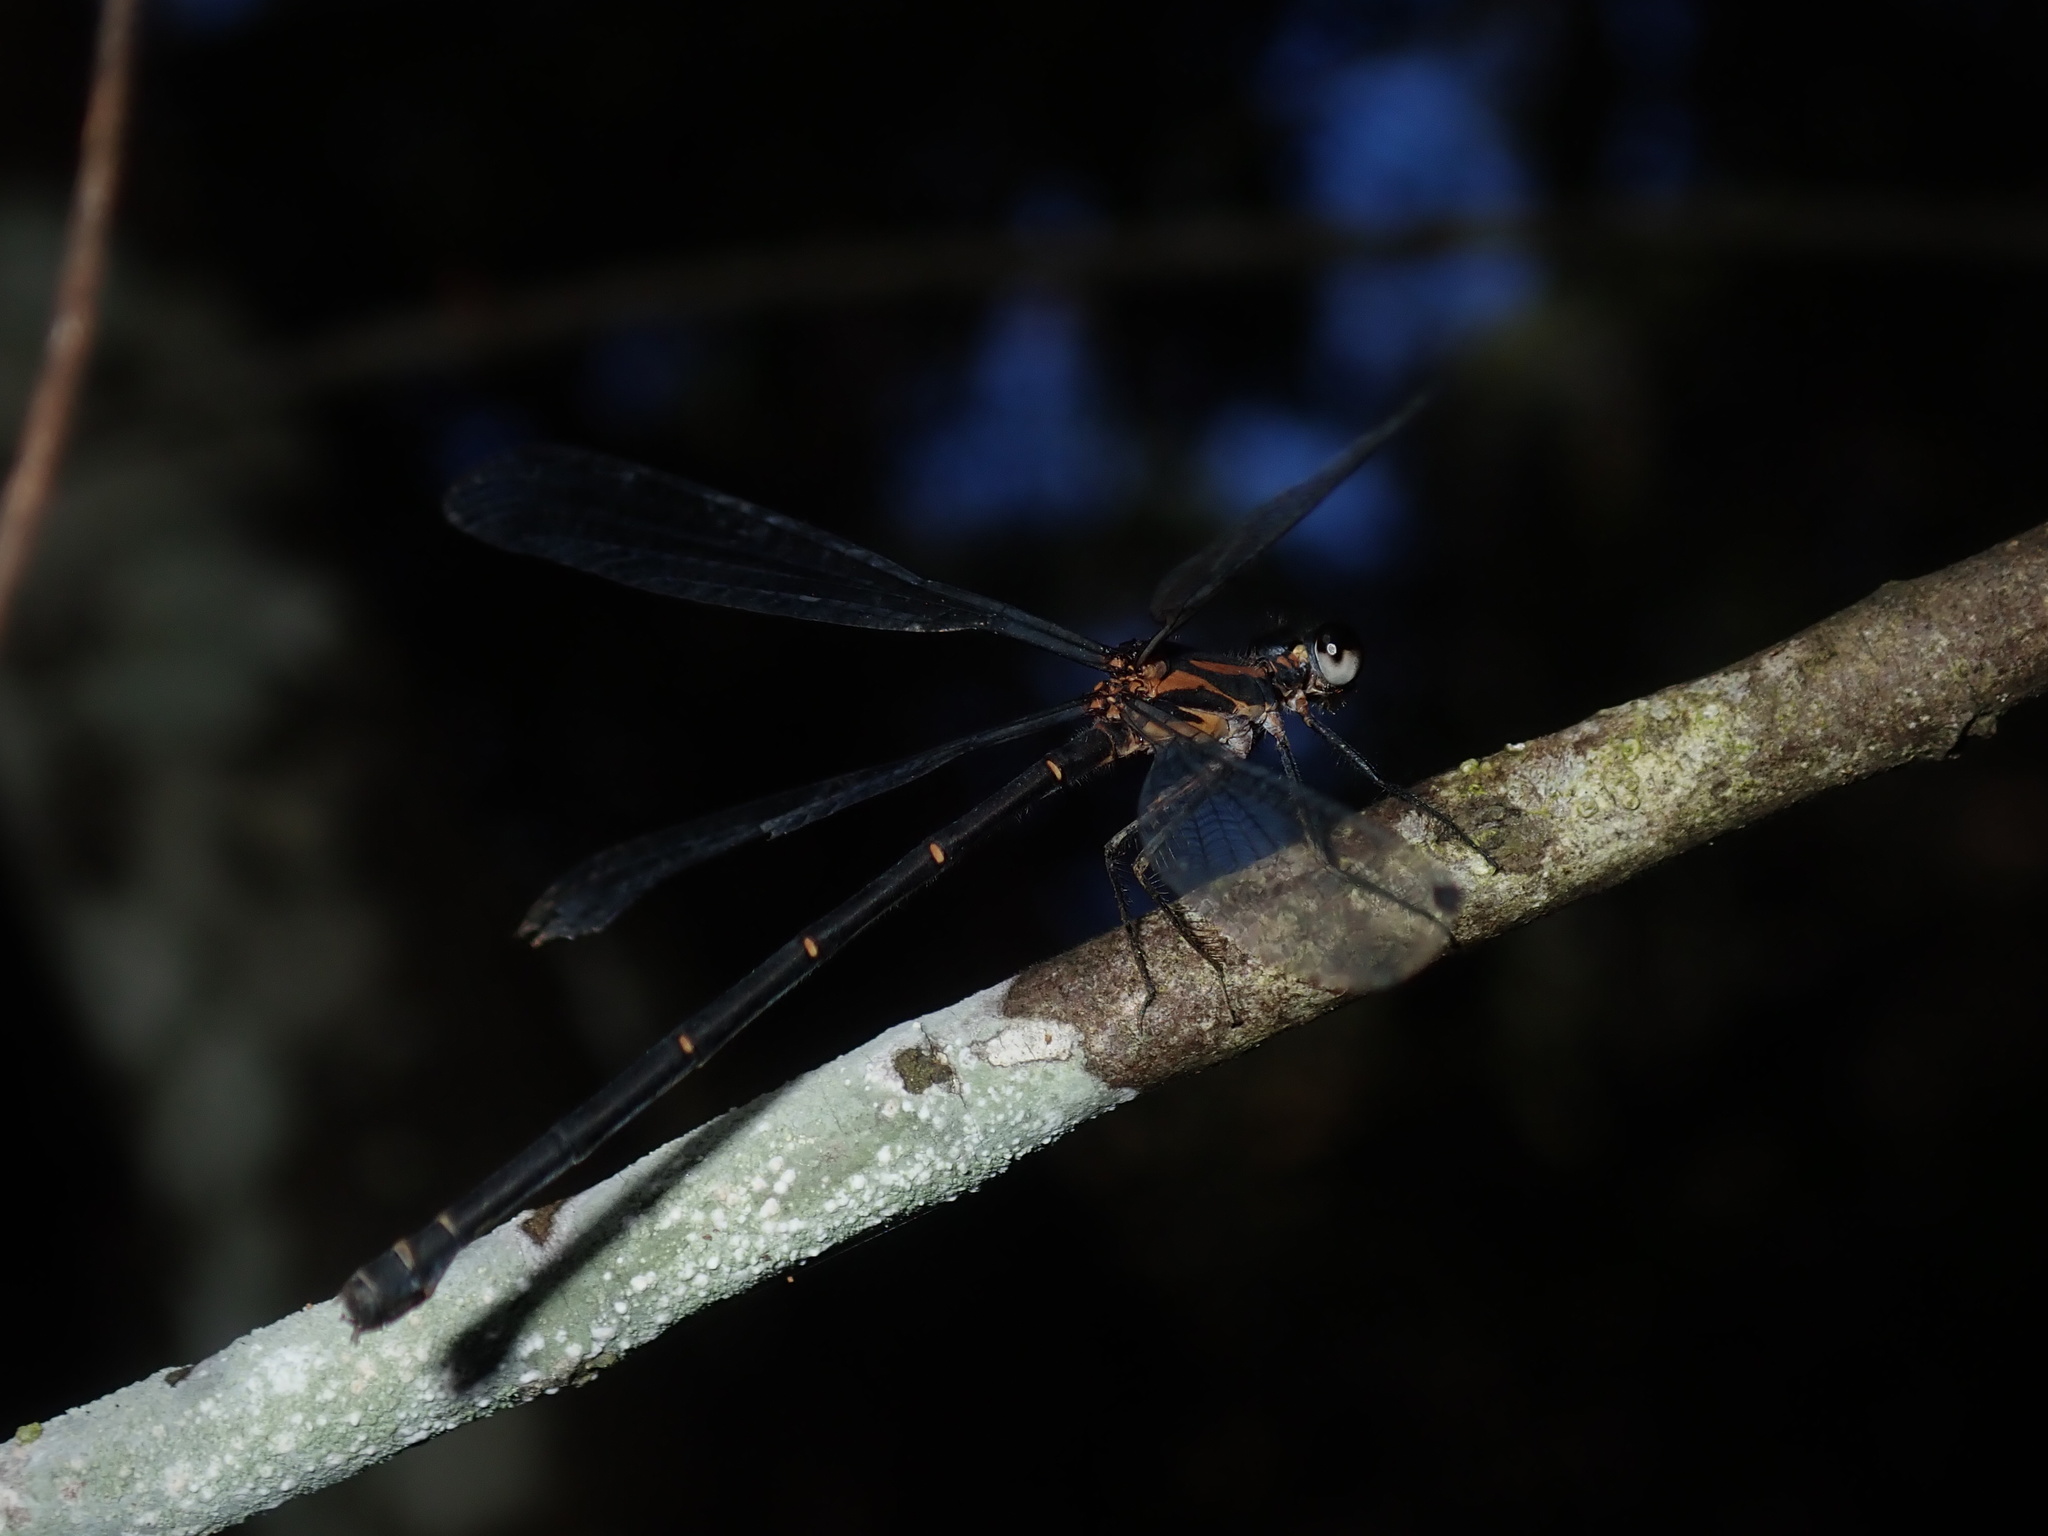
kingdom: Animalia
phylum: Arthropoda
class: Insecta
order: Odonata
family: Argiolestidae
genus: Austroargiolestes
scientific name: Austroargiolestes icteromelas
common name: Common flatwing
